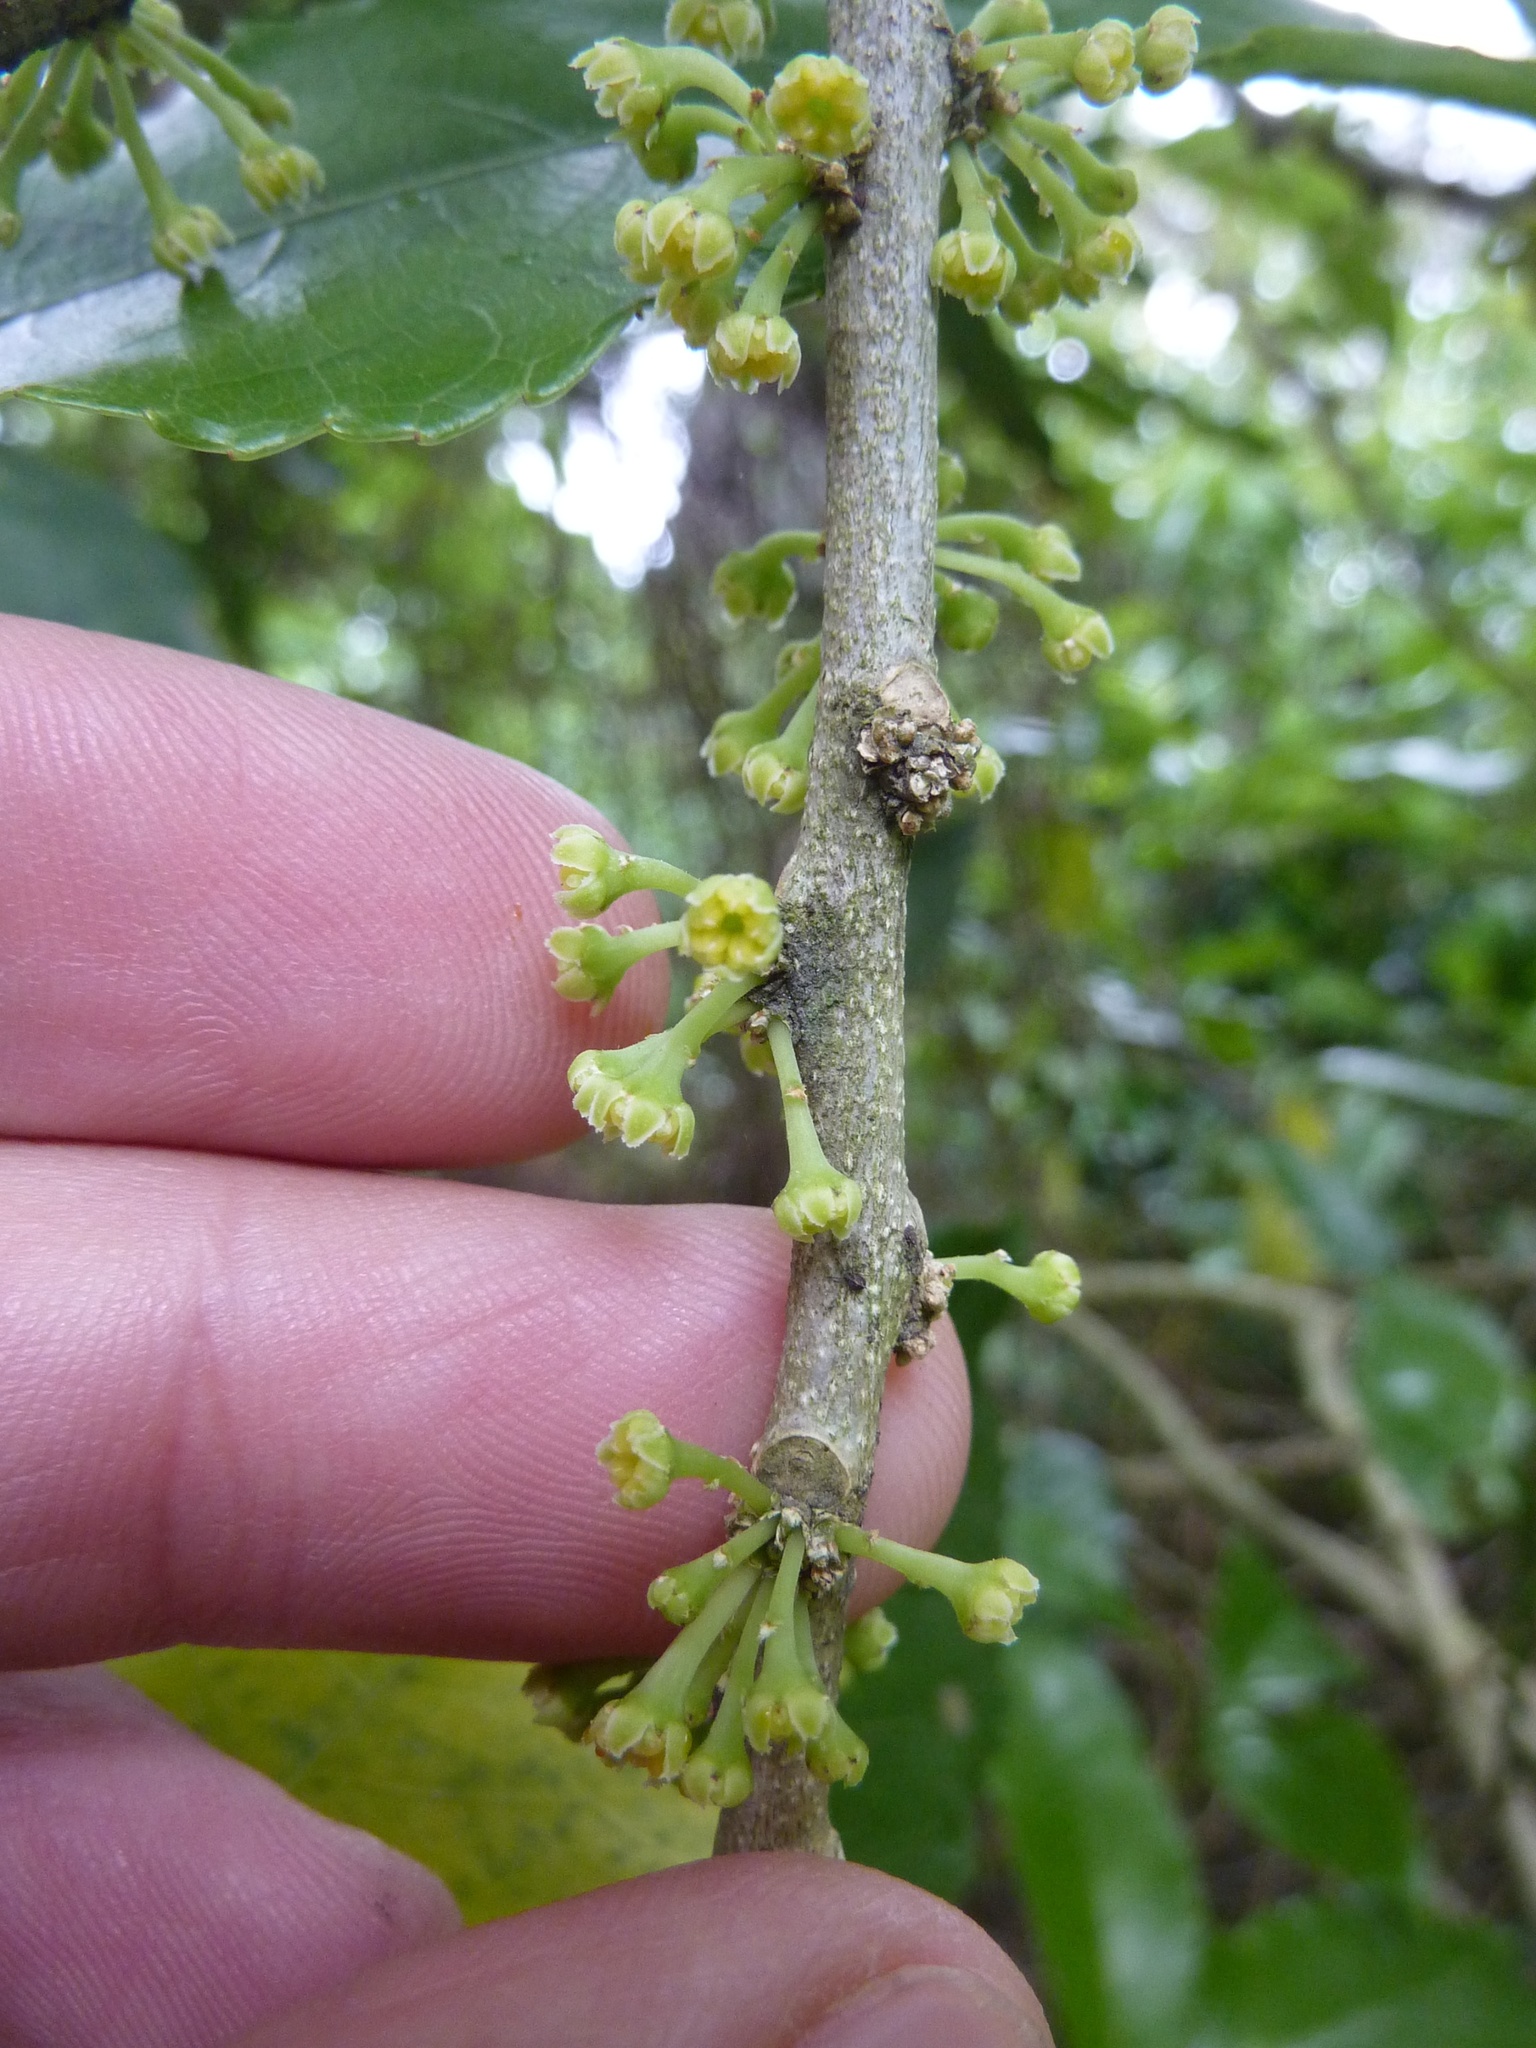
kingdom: Plantae
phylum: Tracheophyta
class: Magnoliopsida
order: Malpighiales
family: Violaceae
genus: Melicytus
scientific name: Melicytus ramiflorus
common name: Mahoe
